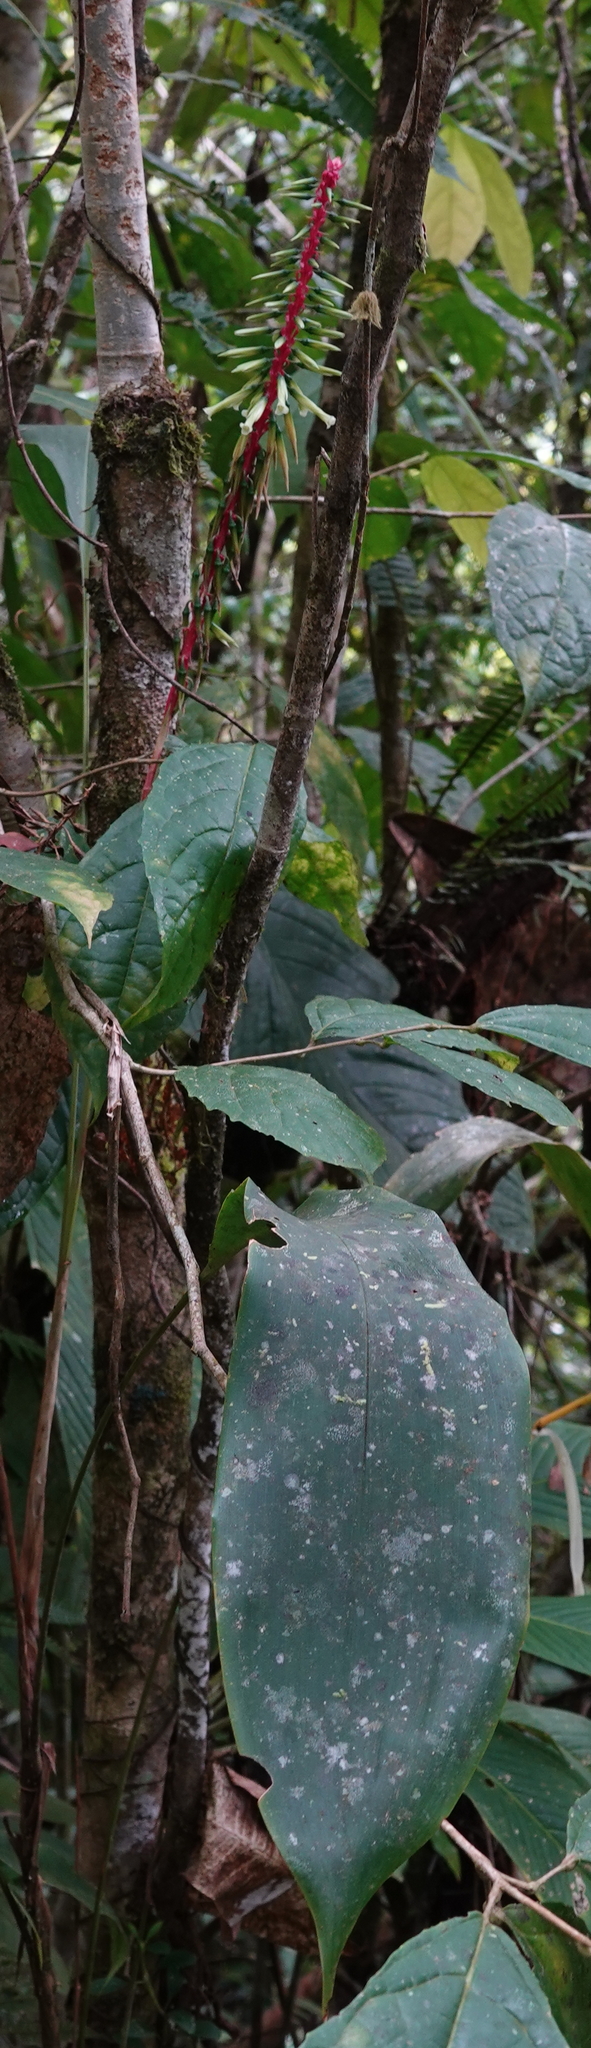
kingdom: Plantae
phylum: Tracheophyta
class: Liliopsida
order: Poales
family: Bromeliaceae
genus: Pitcairnia
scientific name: Pitcairnia multiflora
